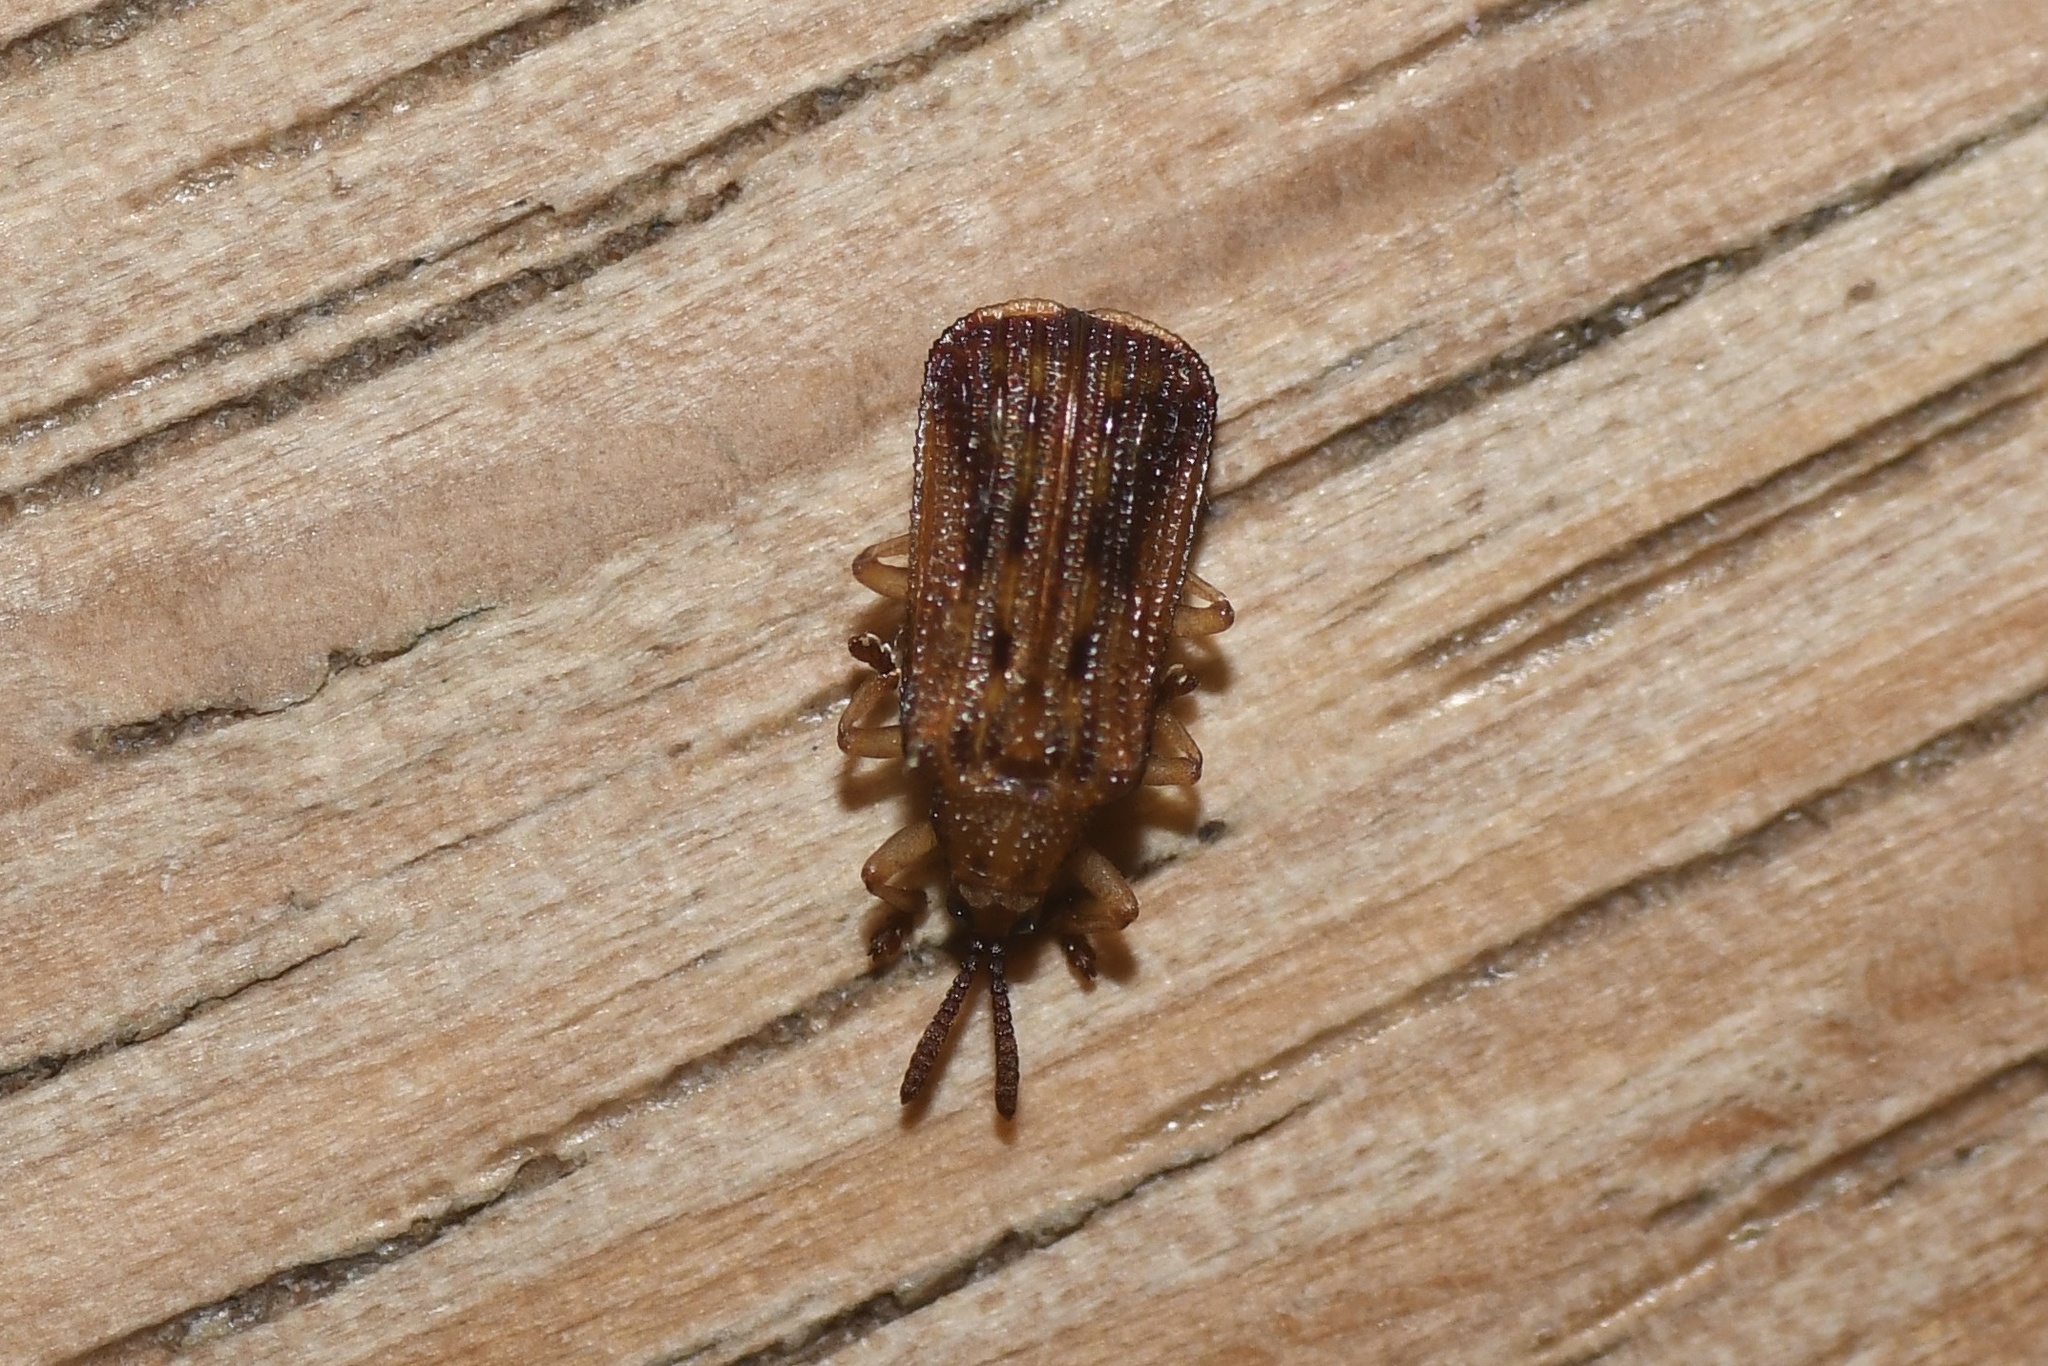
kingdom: Animalia
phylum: Arthropoda
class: Insecta
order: Coleoptera
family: Chrysomelidae
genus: Baliosus
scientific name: Baliosus nervosus
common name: Basswood leaf miner
